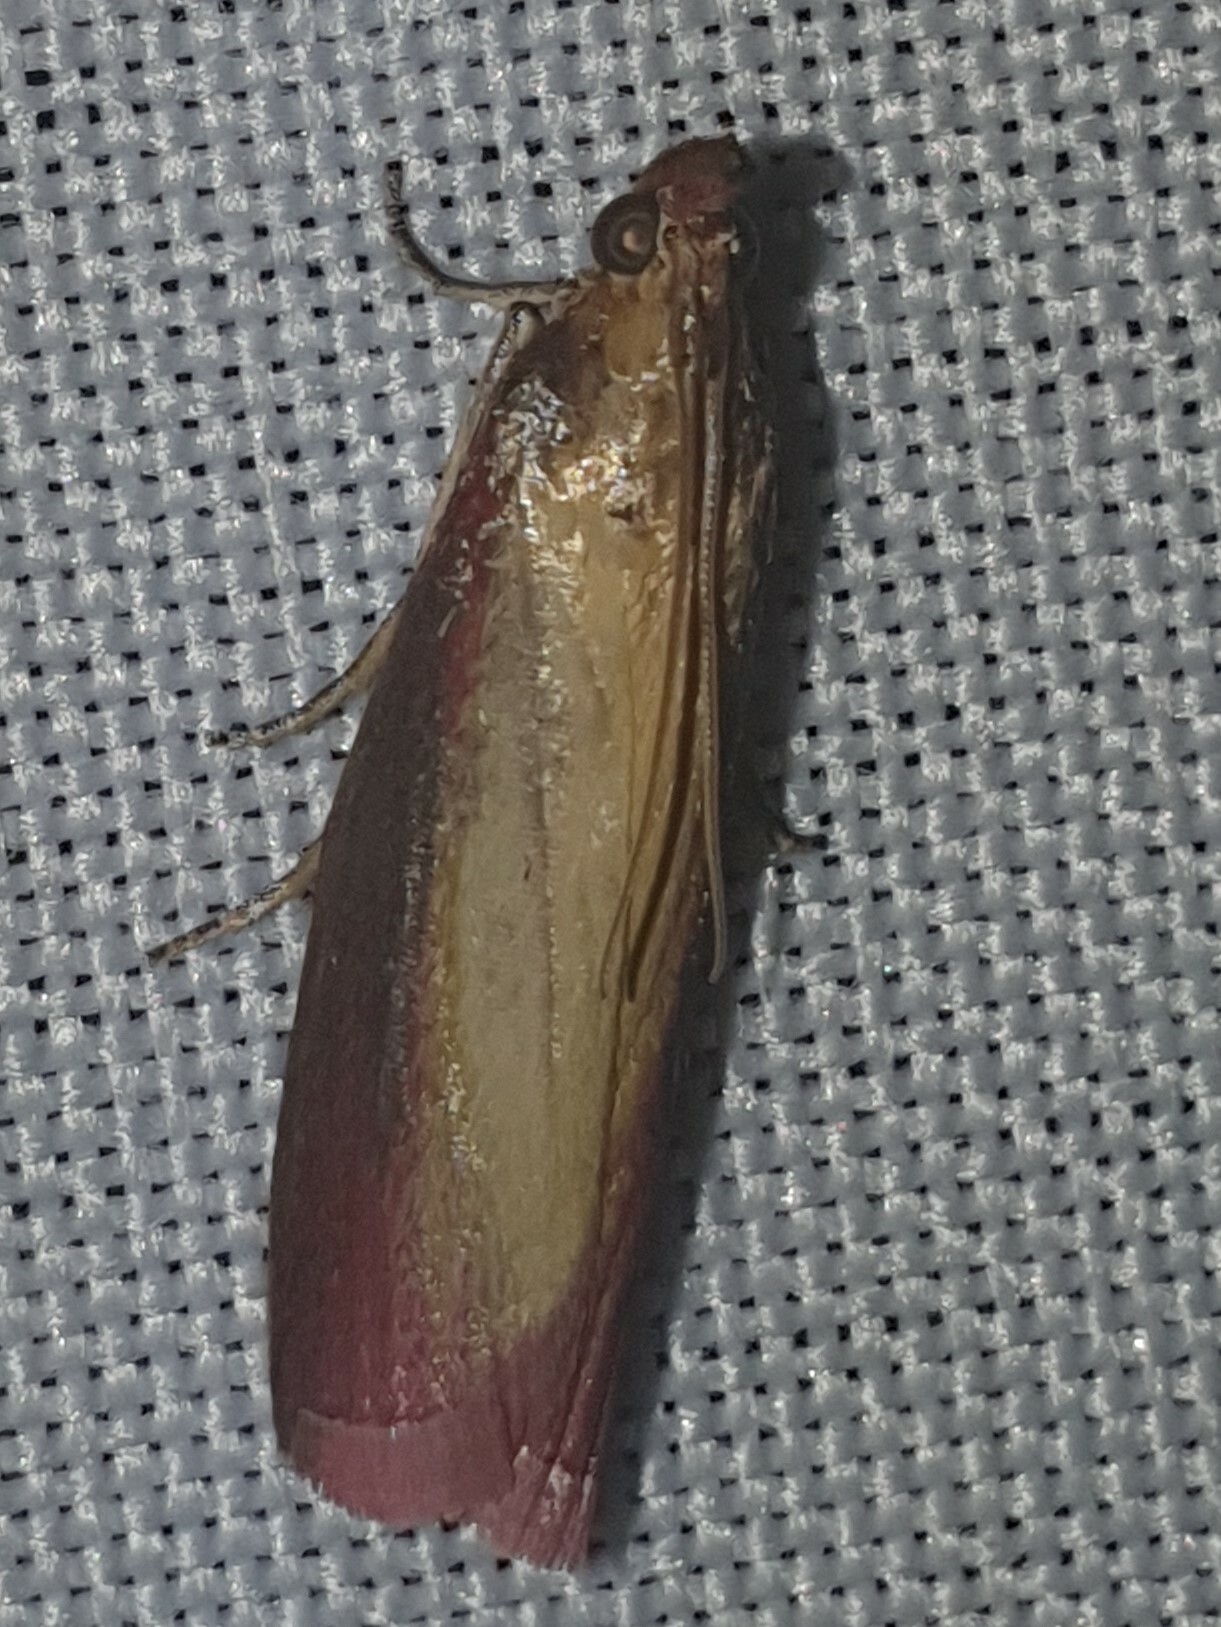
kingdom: Animalia
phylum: Arthropoda
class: Insecta
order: Lepidoptera
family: Pyralidae
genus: Oncocera
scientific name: Oncocera semirubella
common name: Rosy-striped knot-horn
